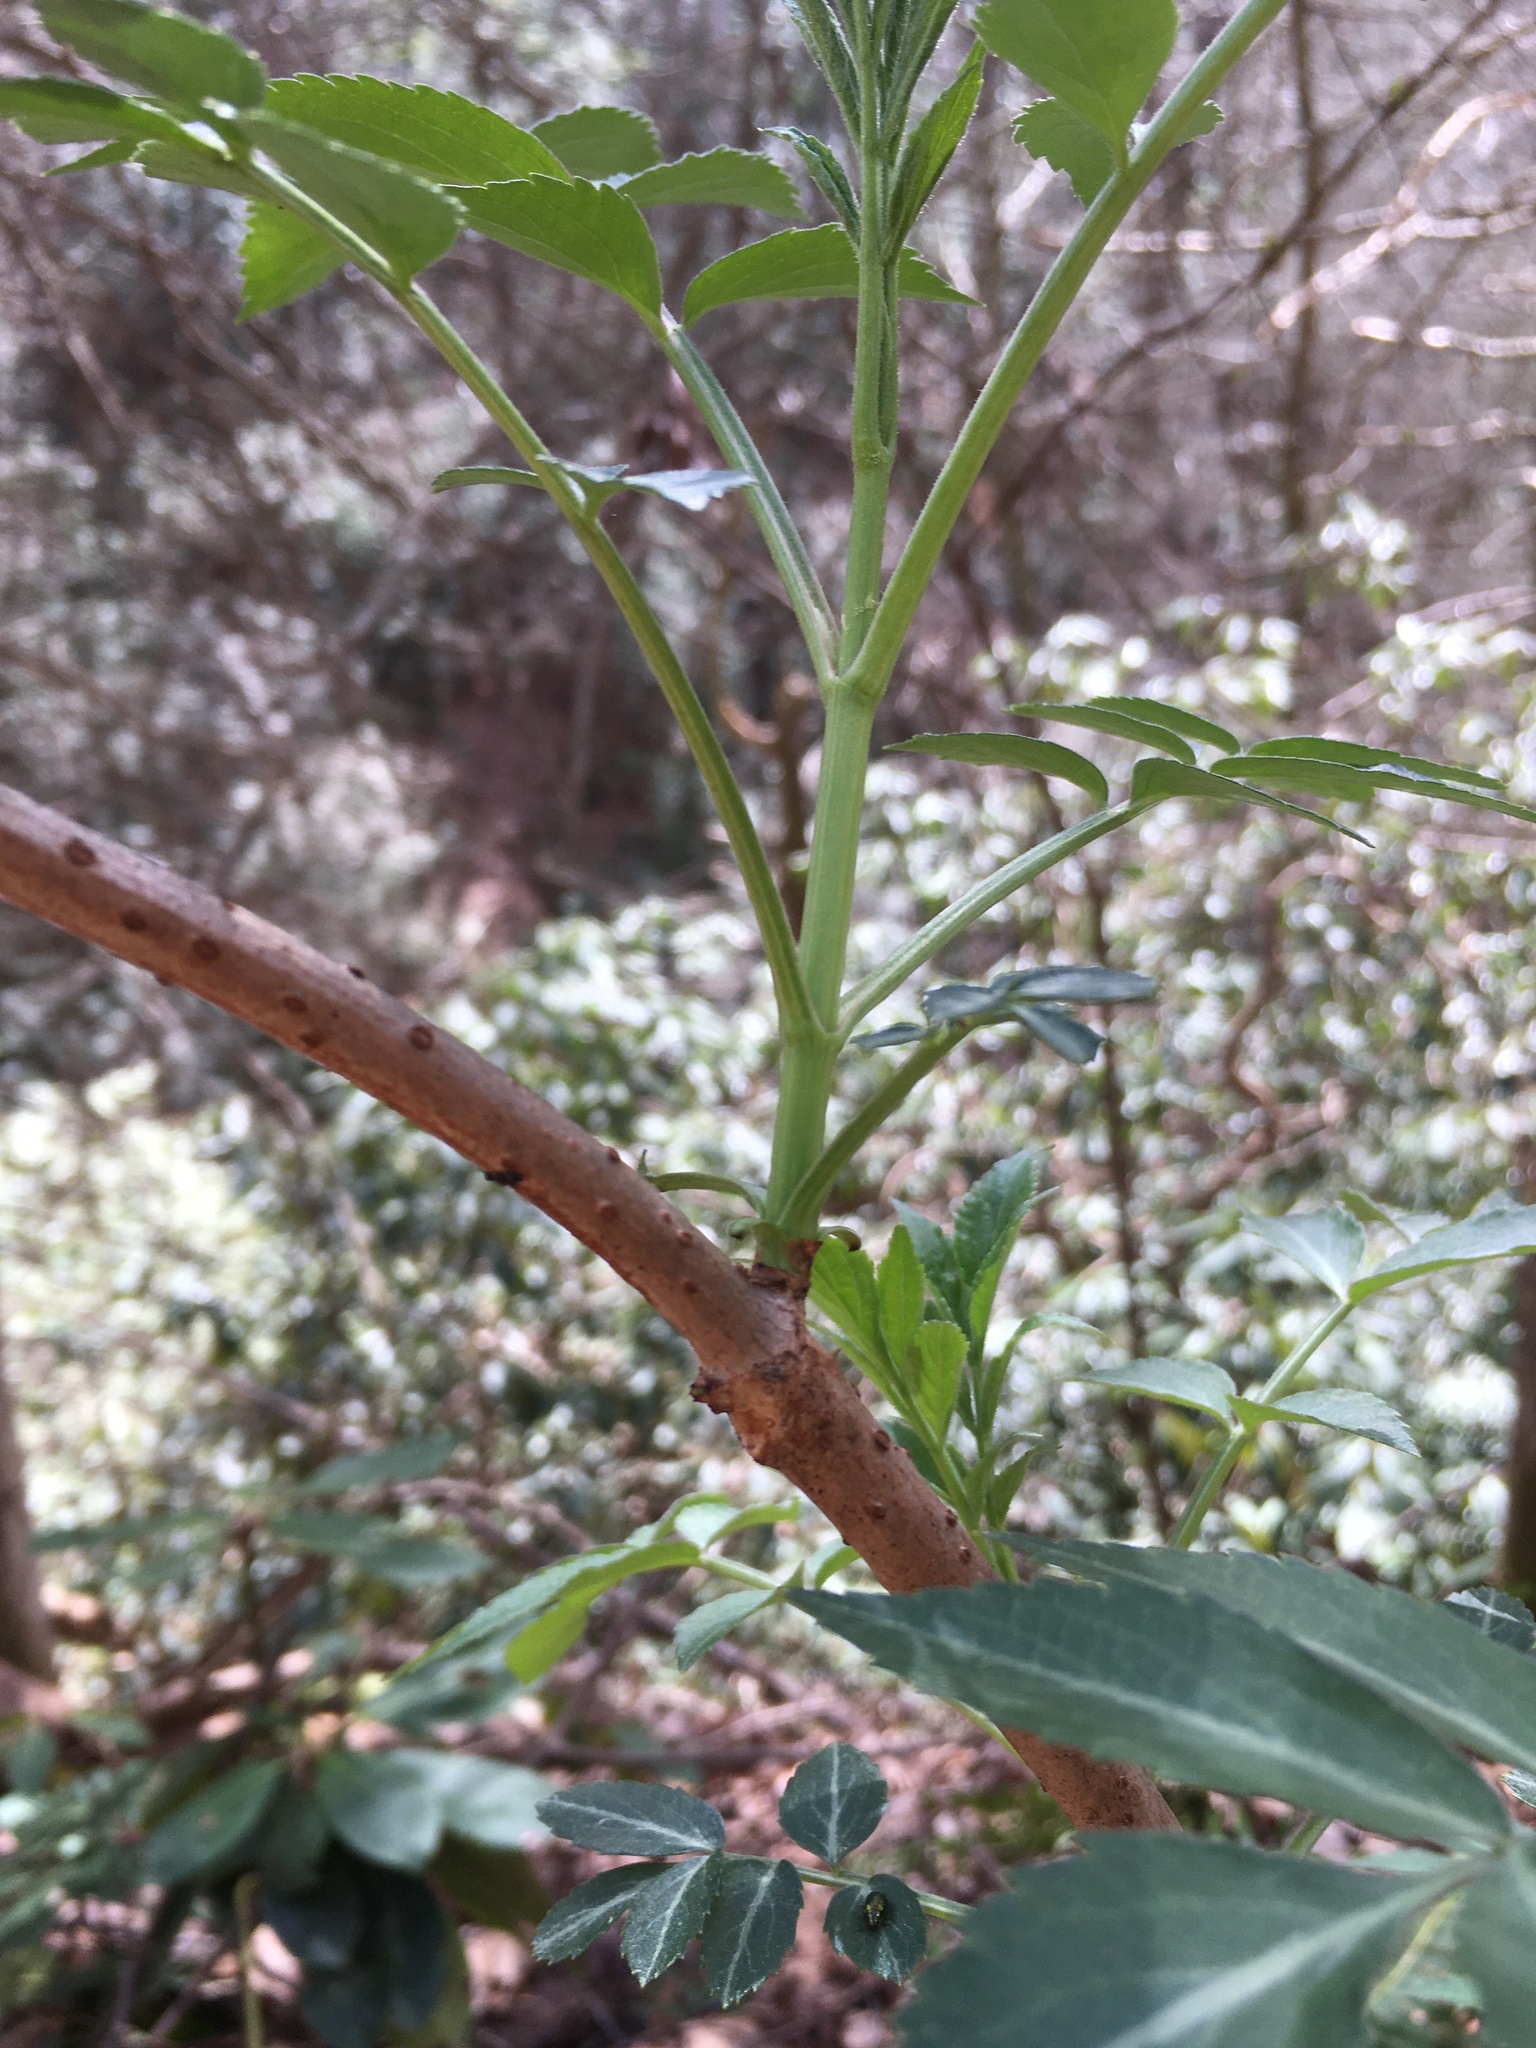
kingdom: Plantae
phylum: Tracheophyta
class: Magnoliopsida
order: Dipsacales
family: Viburnaceae
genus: Sambucus
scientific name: Sambucus canadensis
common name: American elder
